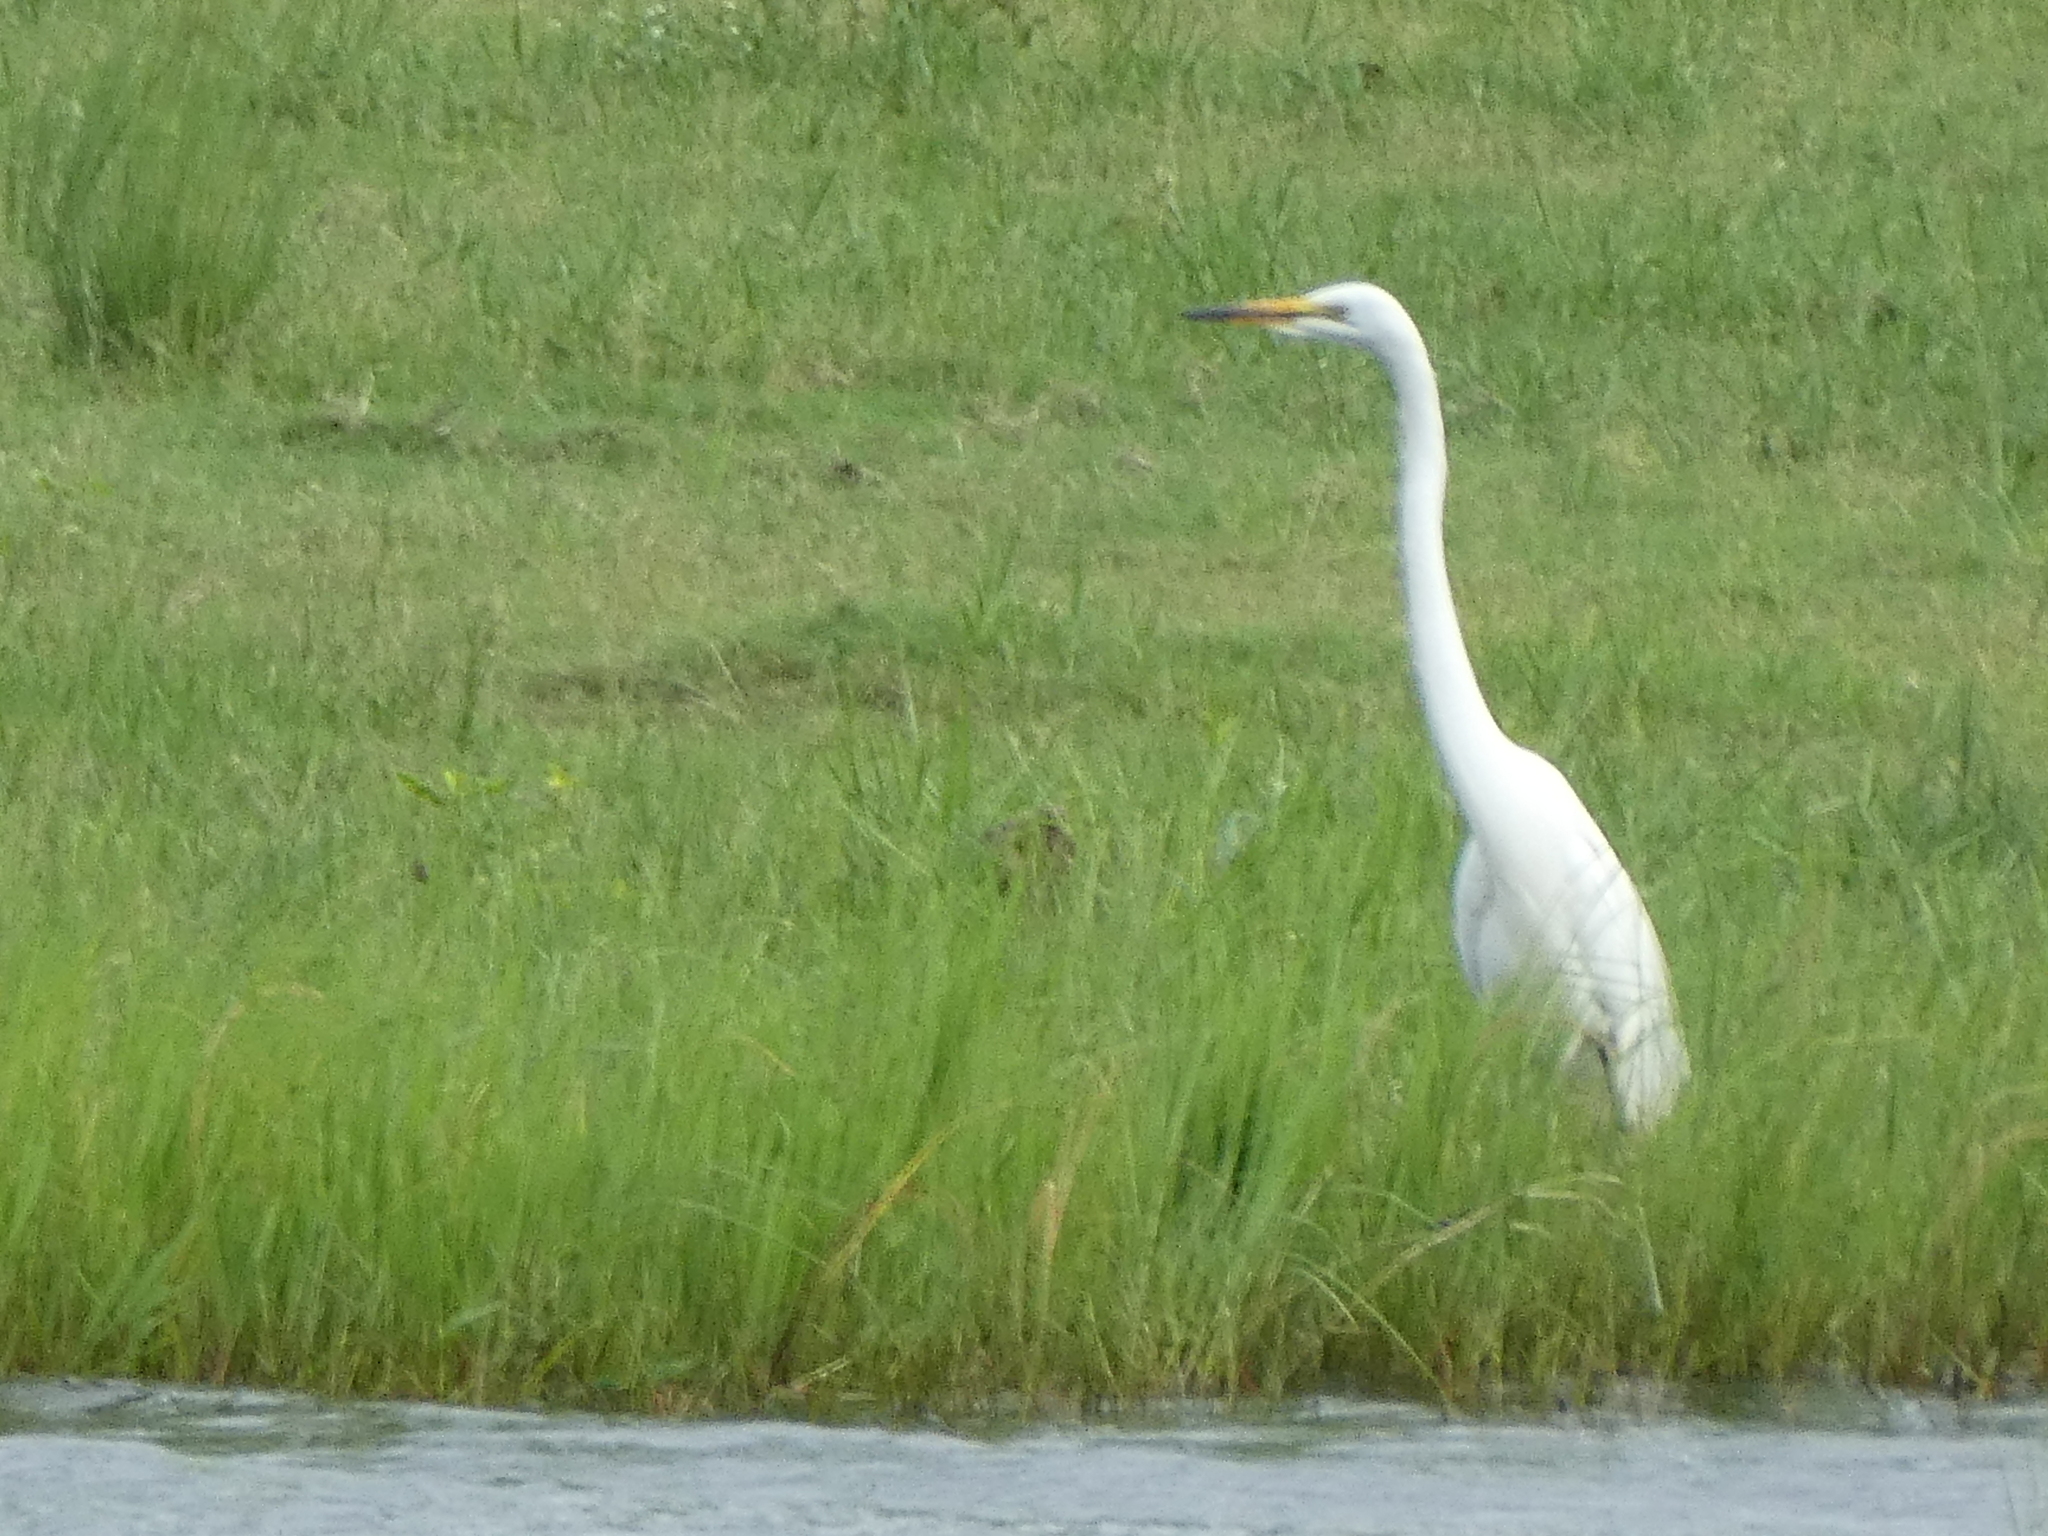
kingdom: Animalia
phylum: Chordata
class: Aves
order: Pelecaniformes
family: Ardeidae
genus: Ardea
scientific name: Ardea alba
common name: Great egret
